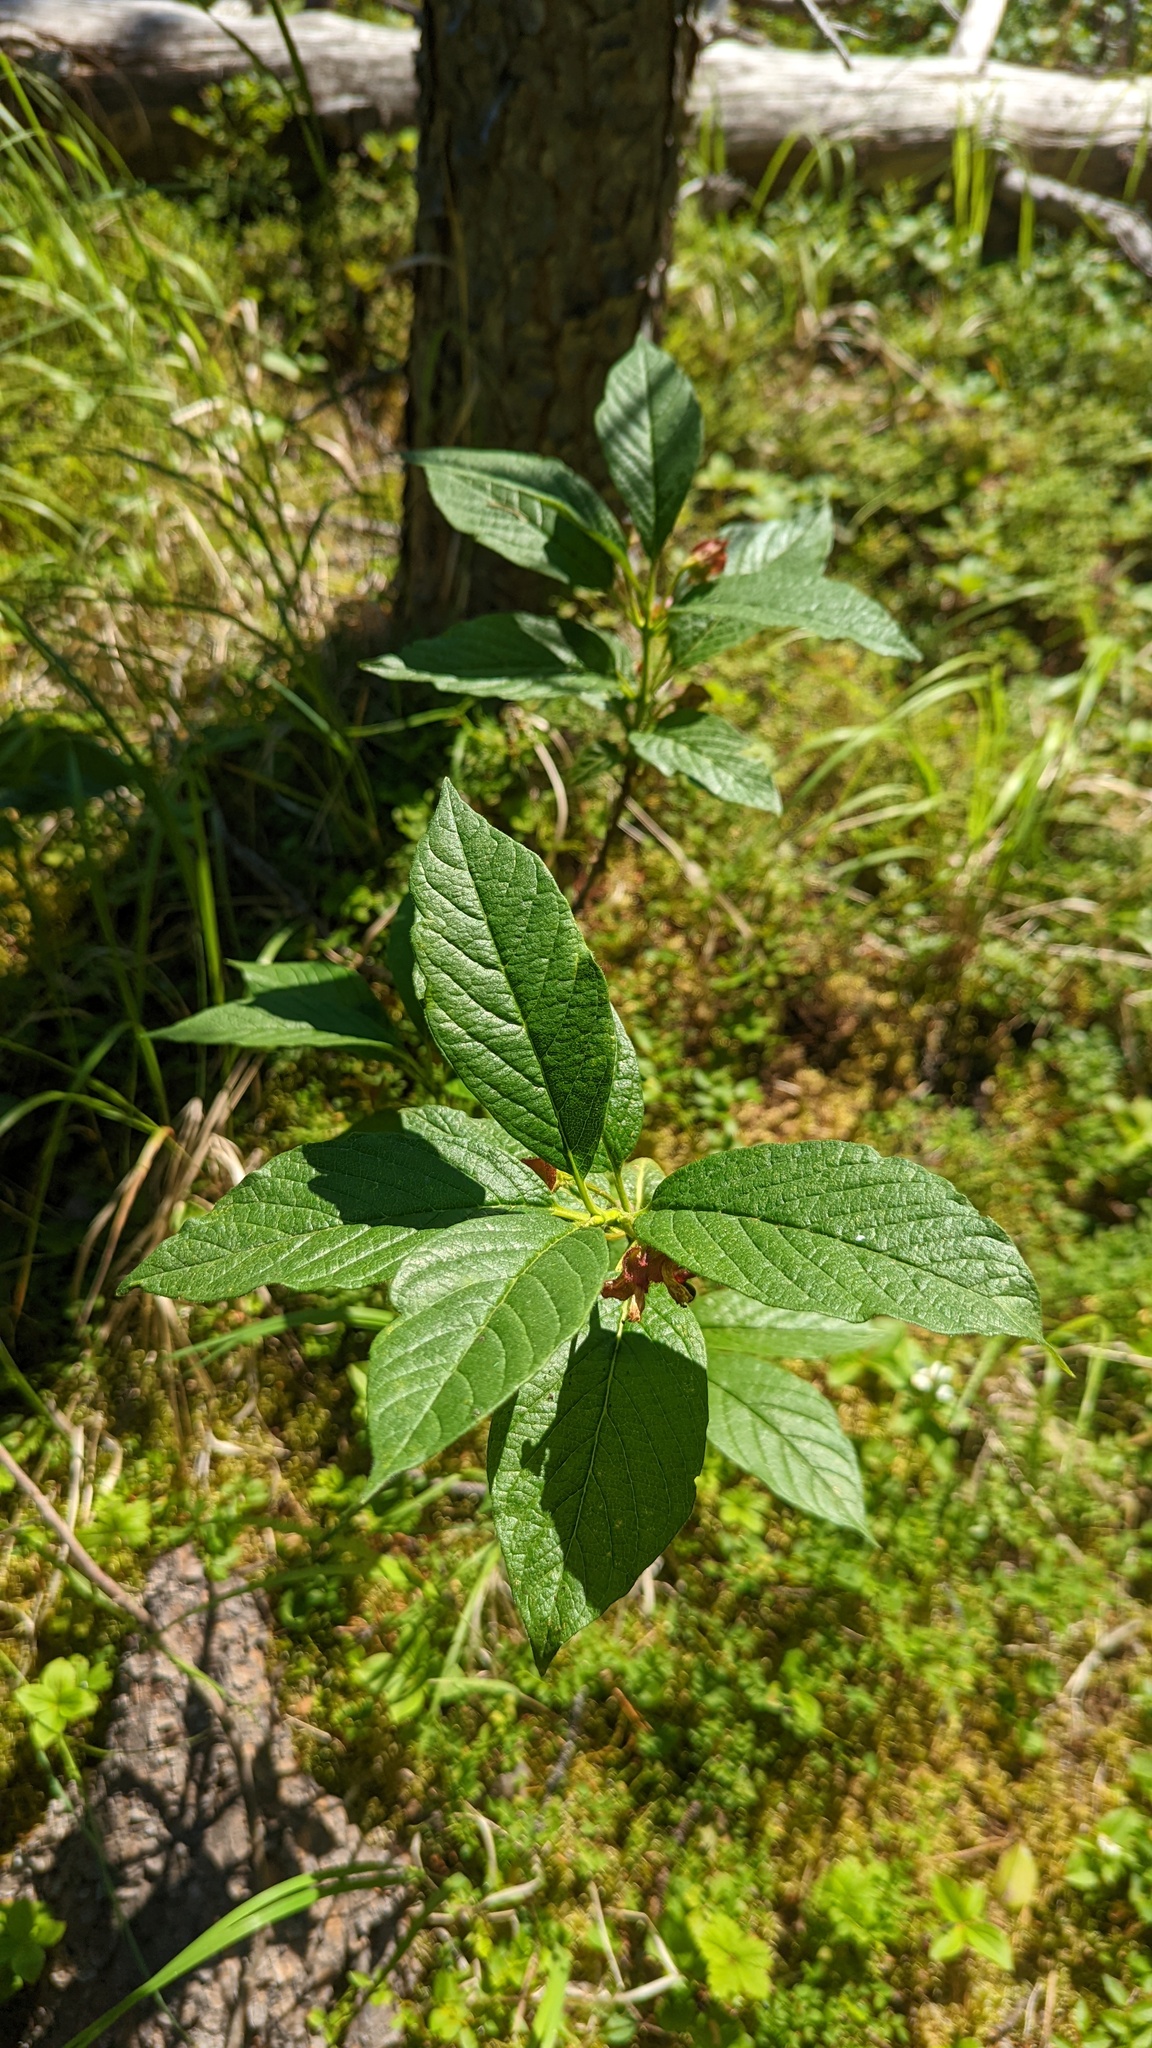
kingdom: Plantae
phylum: Tracheophyta
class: Magnoliopsida
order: Dipsacales
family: Caprifoliaceae
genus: Lonicera
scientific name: Lonicera involucrata
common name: Californian honeysuckle
